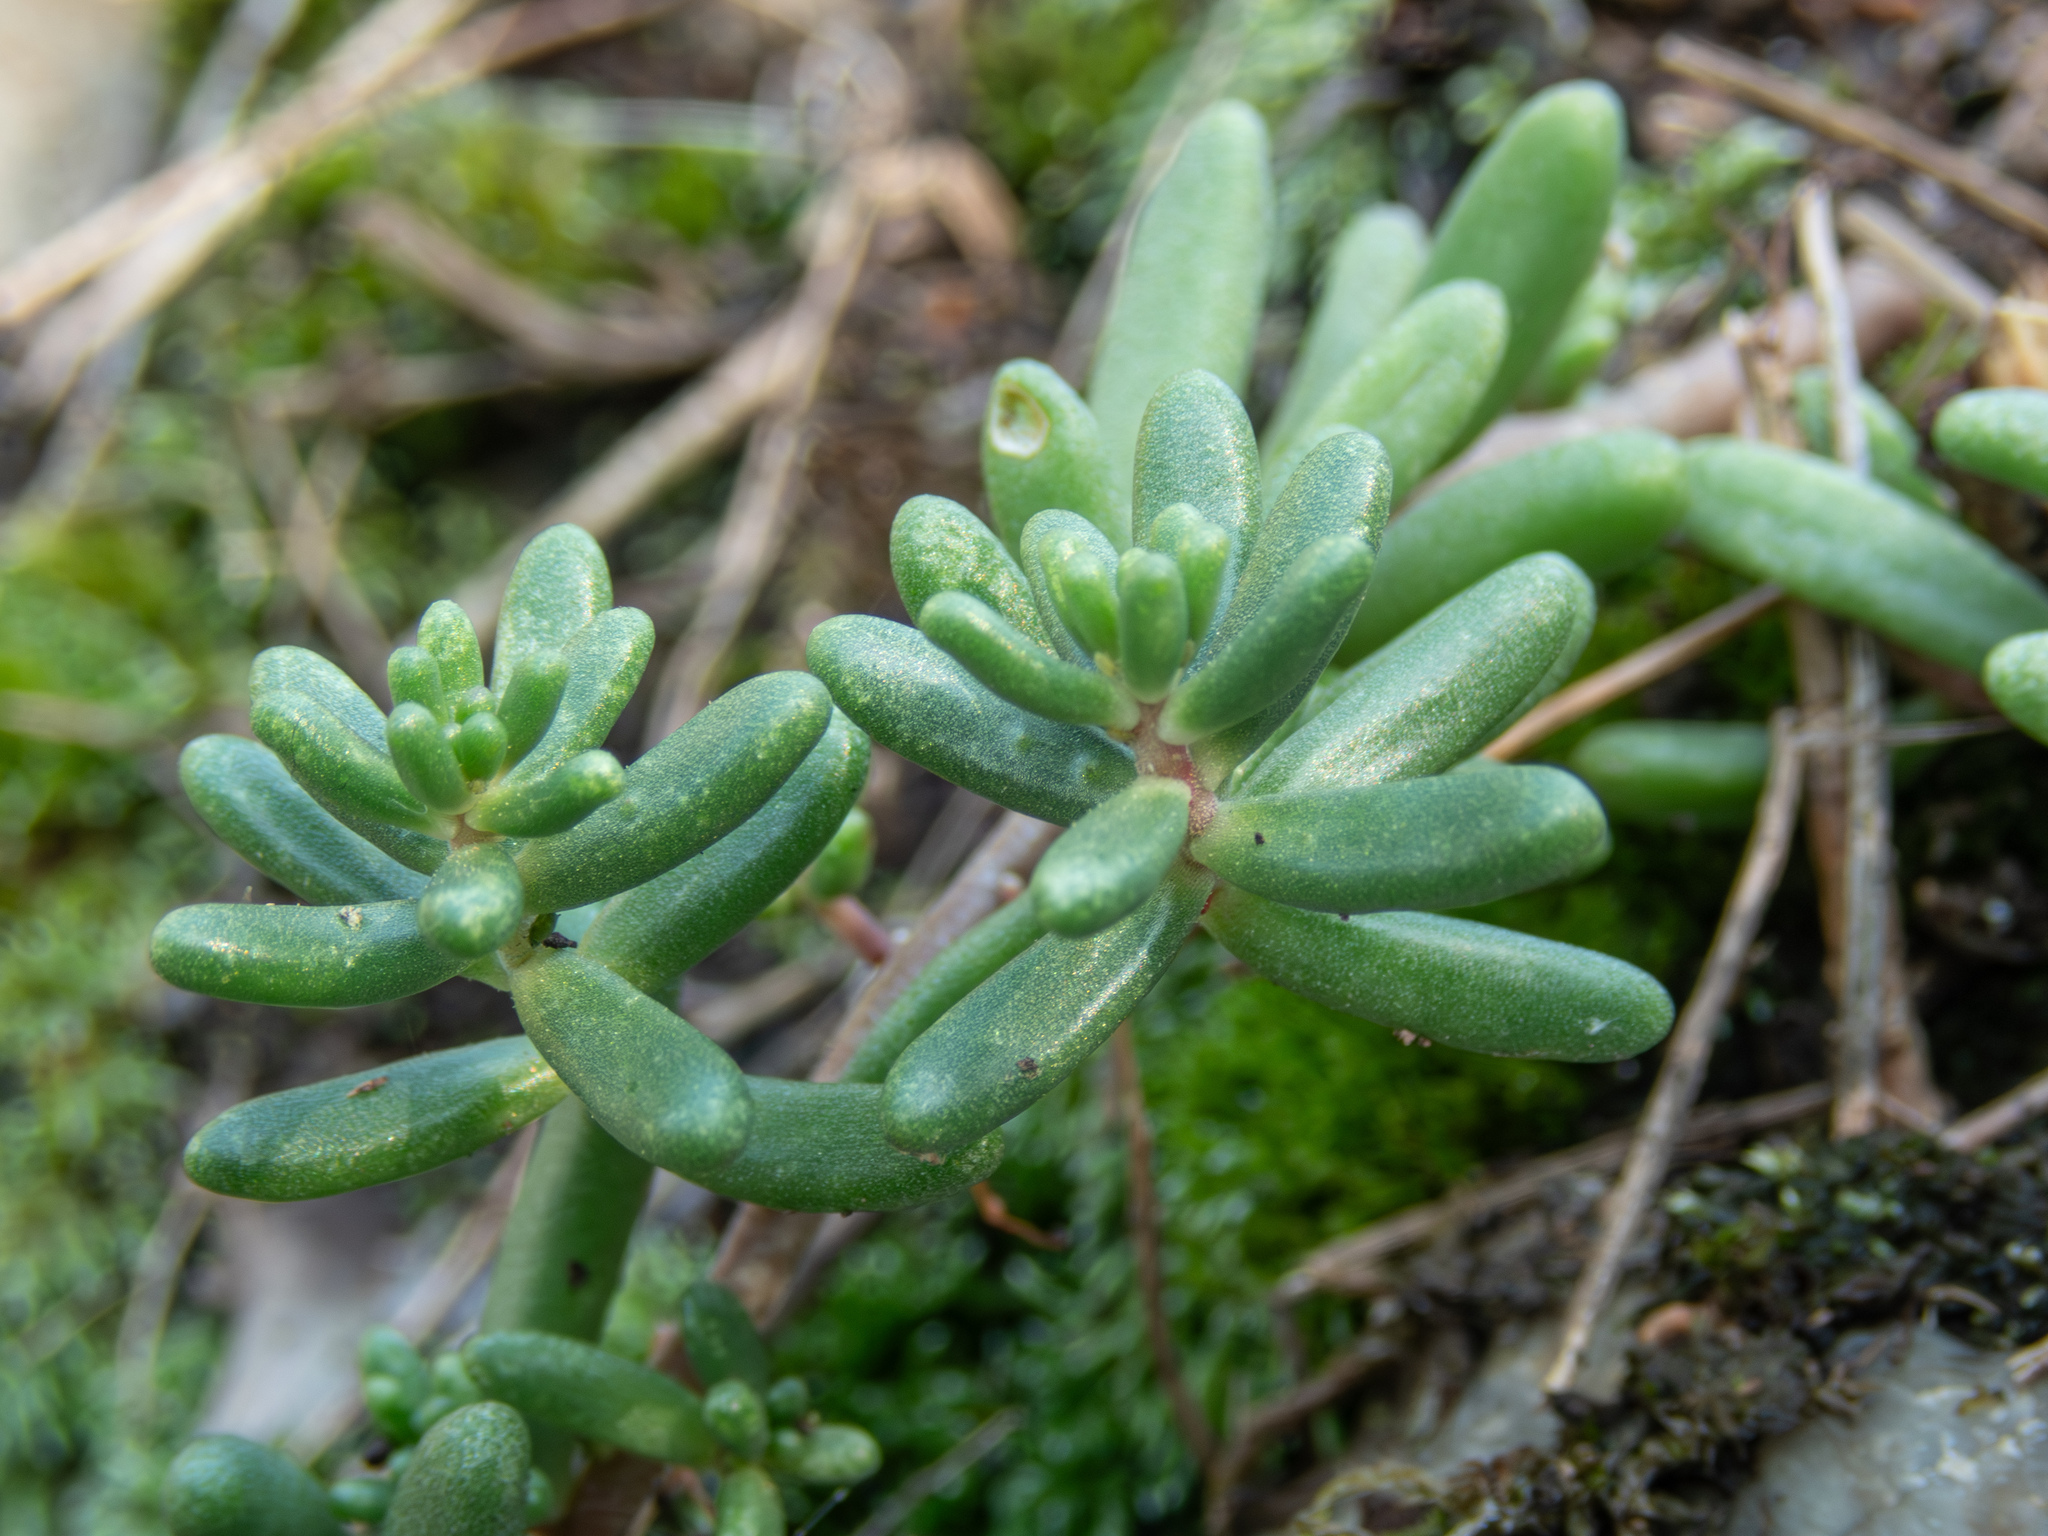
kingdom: Plantae
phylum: Tracheophyta
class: Magnoliopsida
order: Saxifragales
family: Crassulaceae
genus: Sedum
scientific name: Sedum album
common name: White stonecrop
